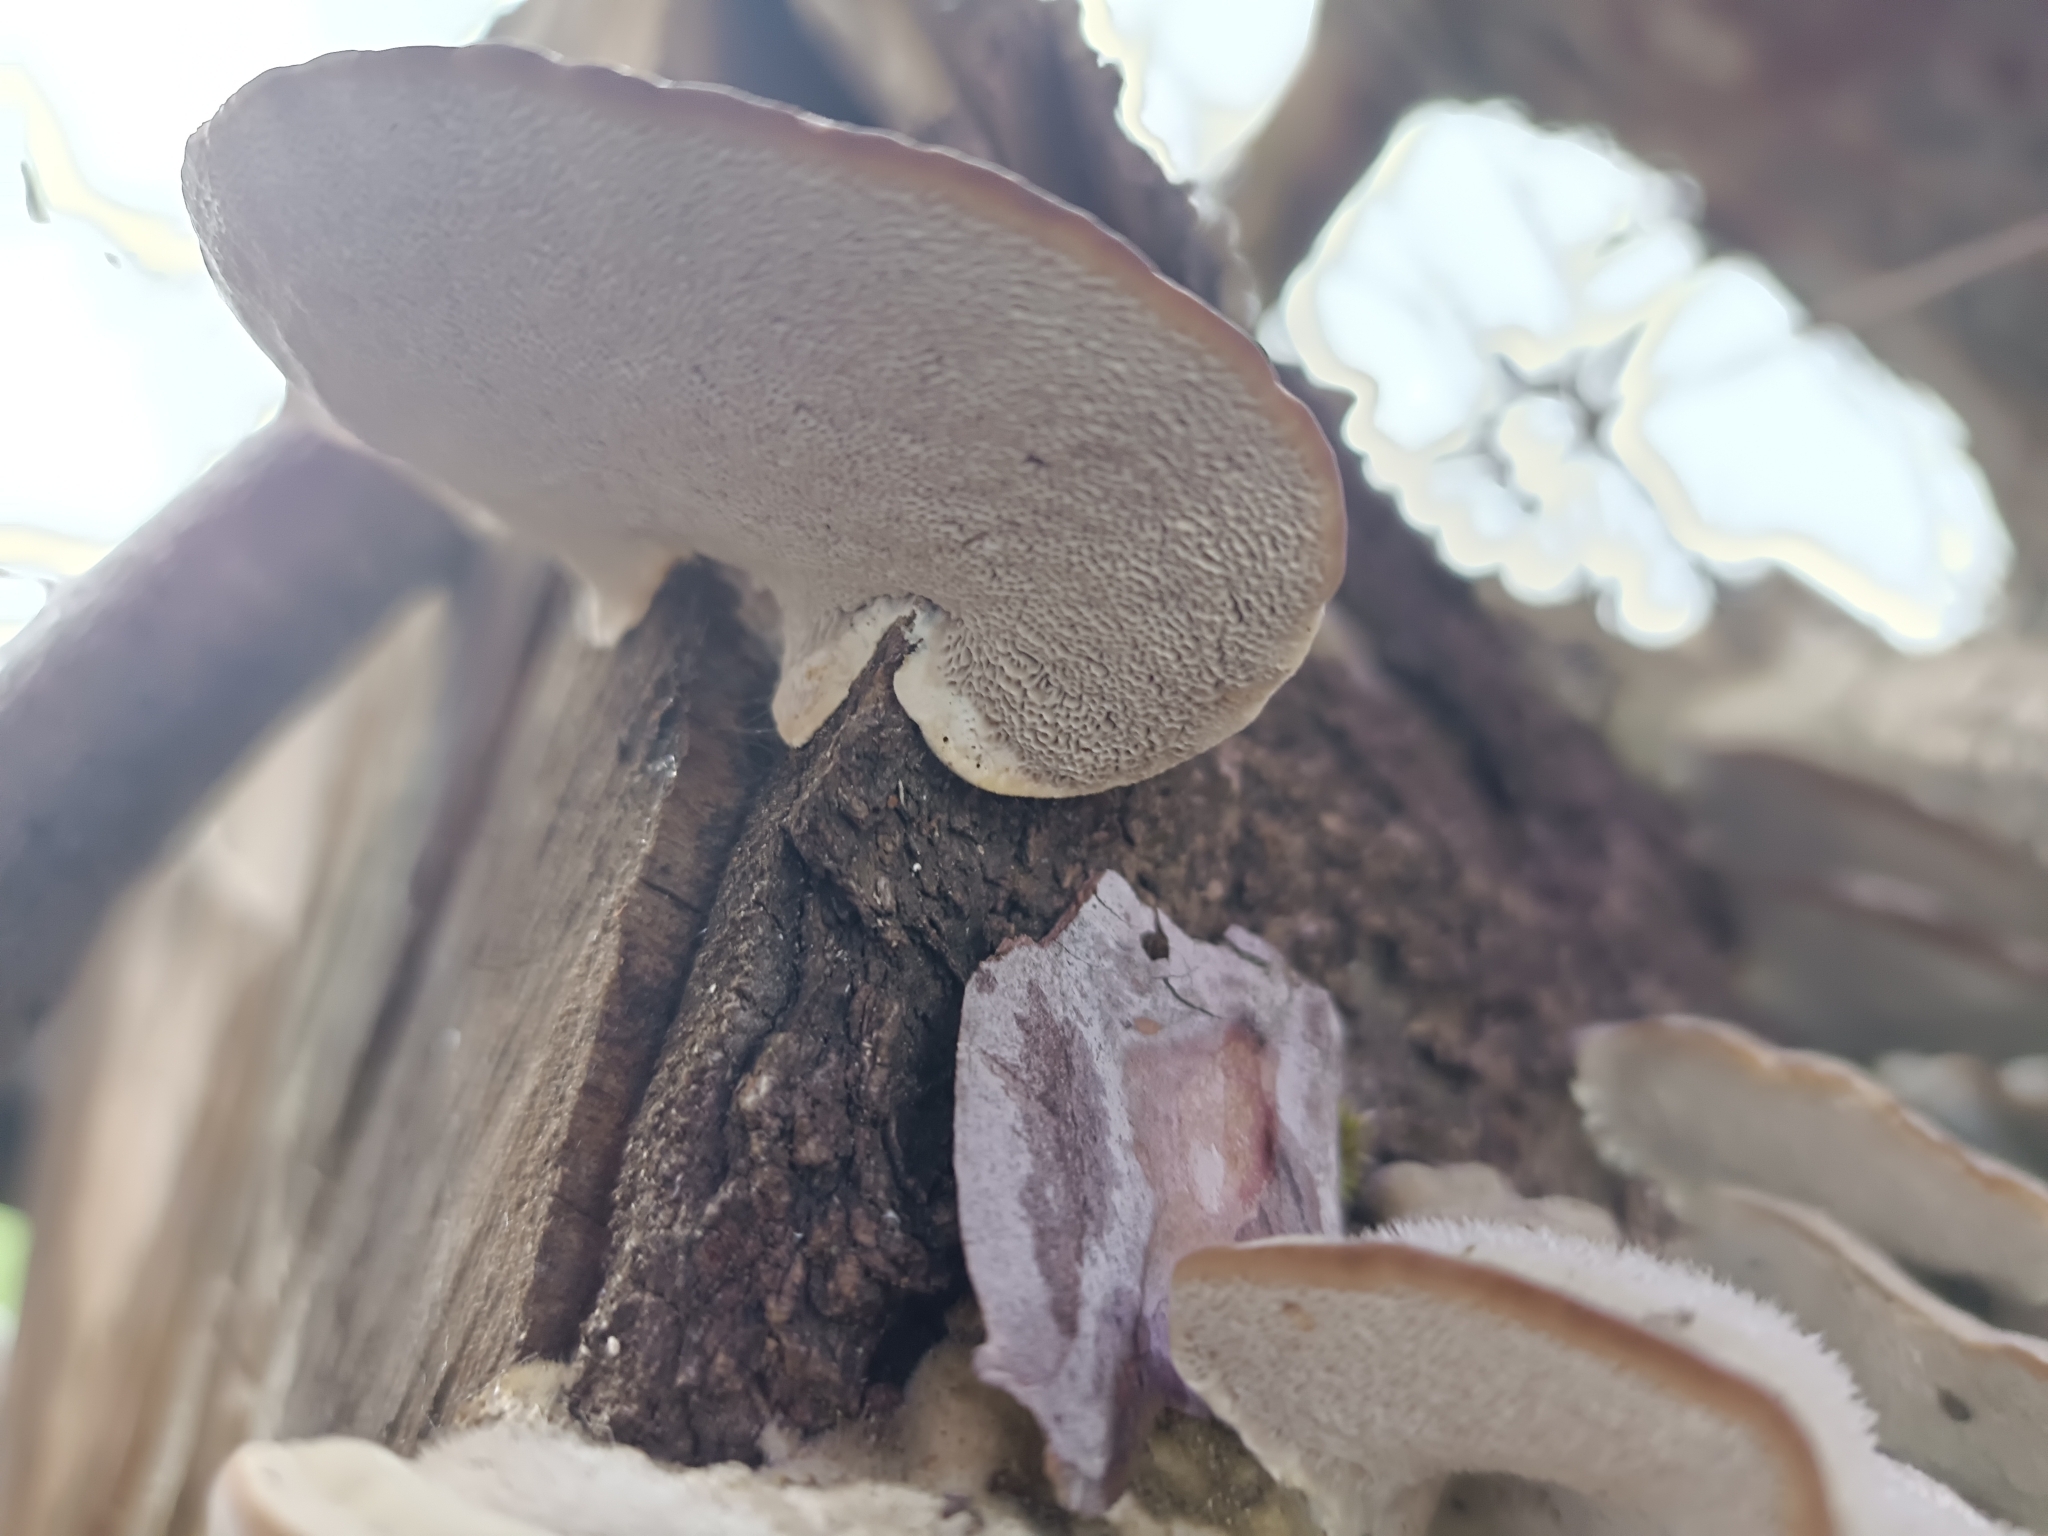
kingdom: Fungi
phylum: Basidiomycota
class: Agaricomycetes
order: Polyporales
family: Polyporaceae
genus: Trametes
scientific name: Trametes hirsuta
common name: Hairy bracket
